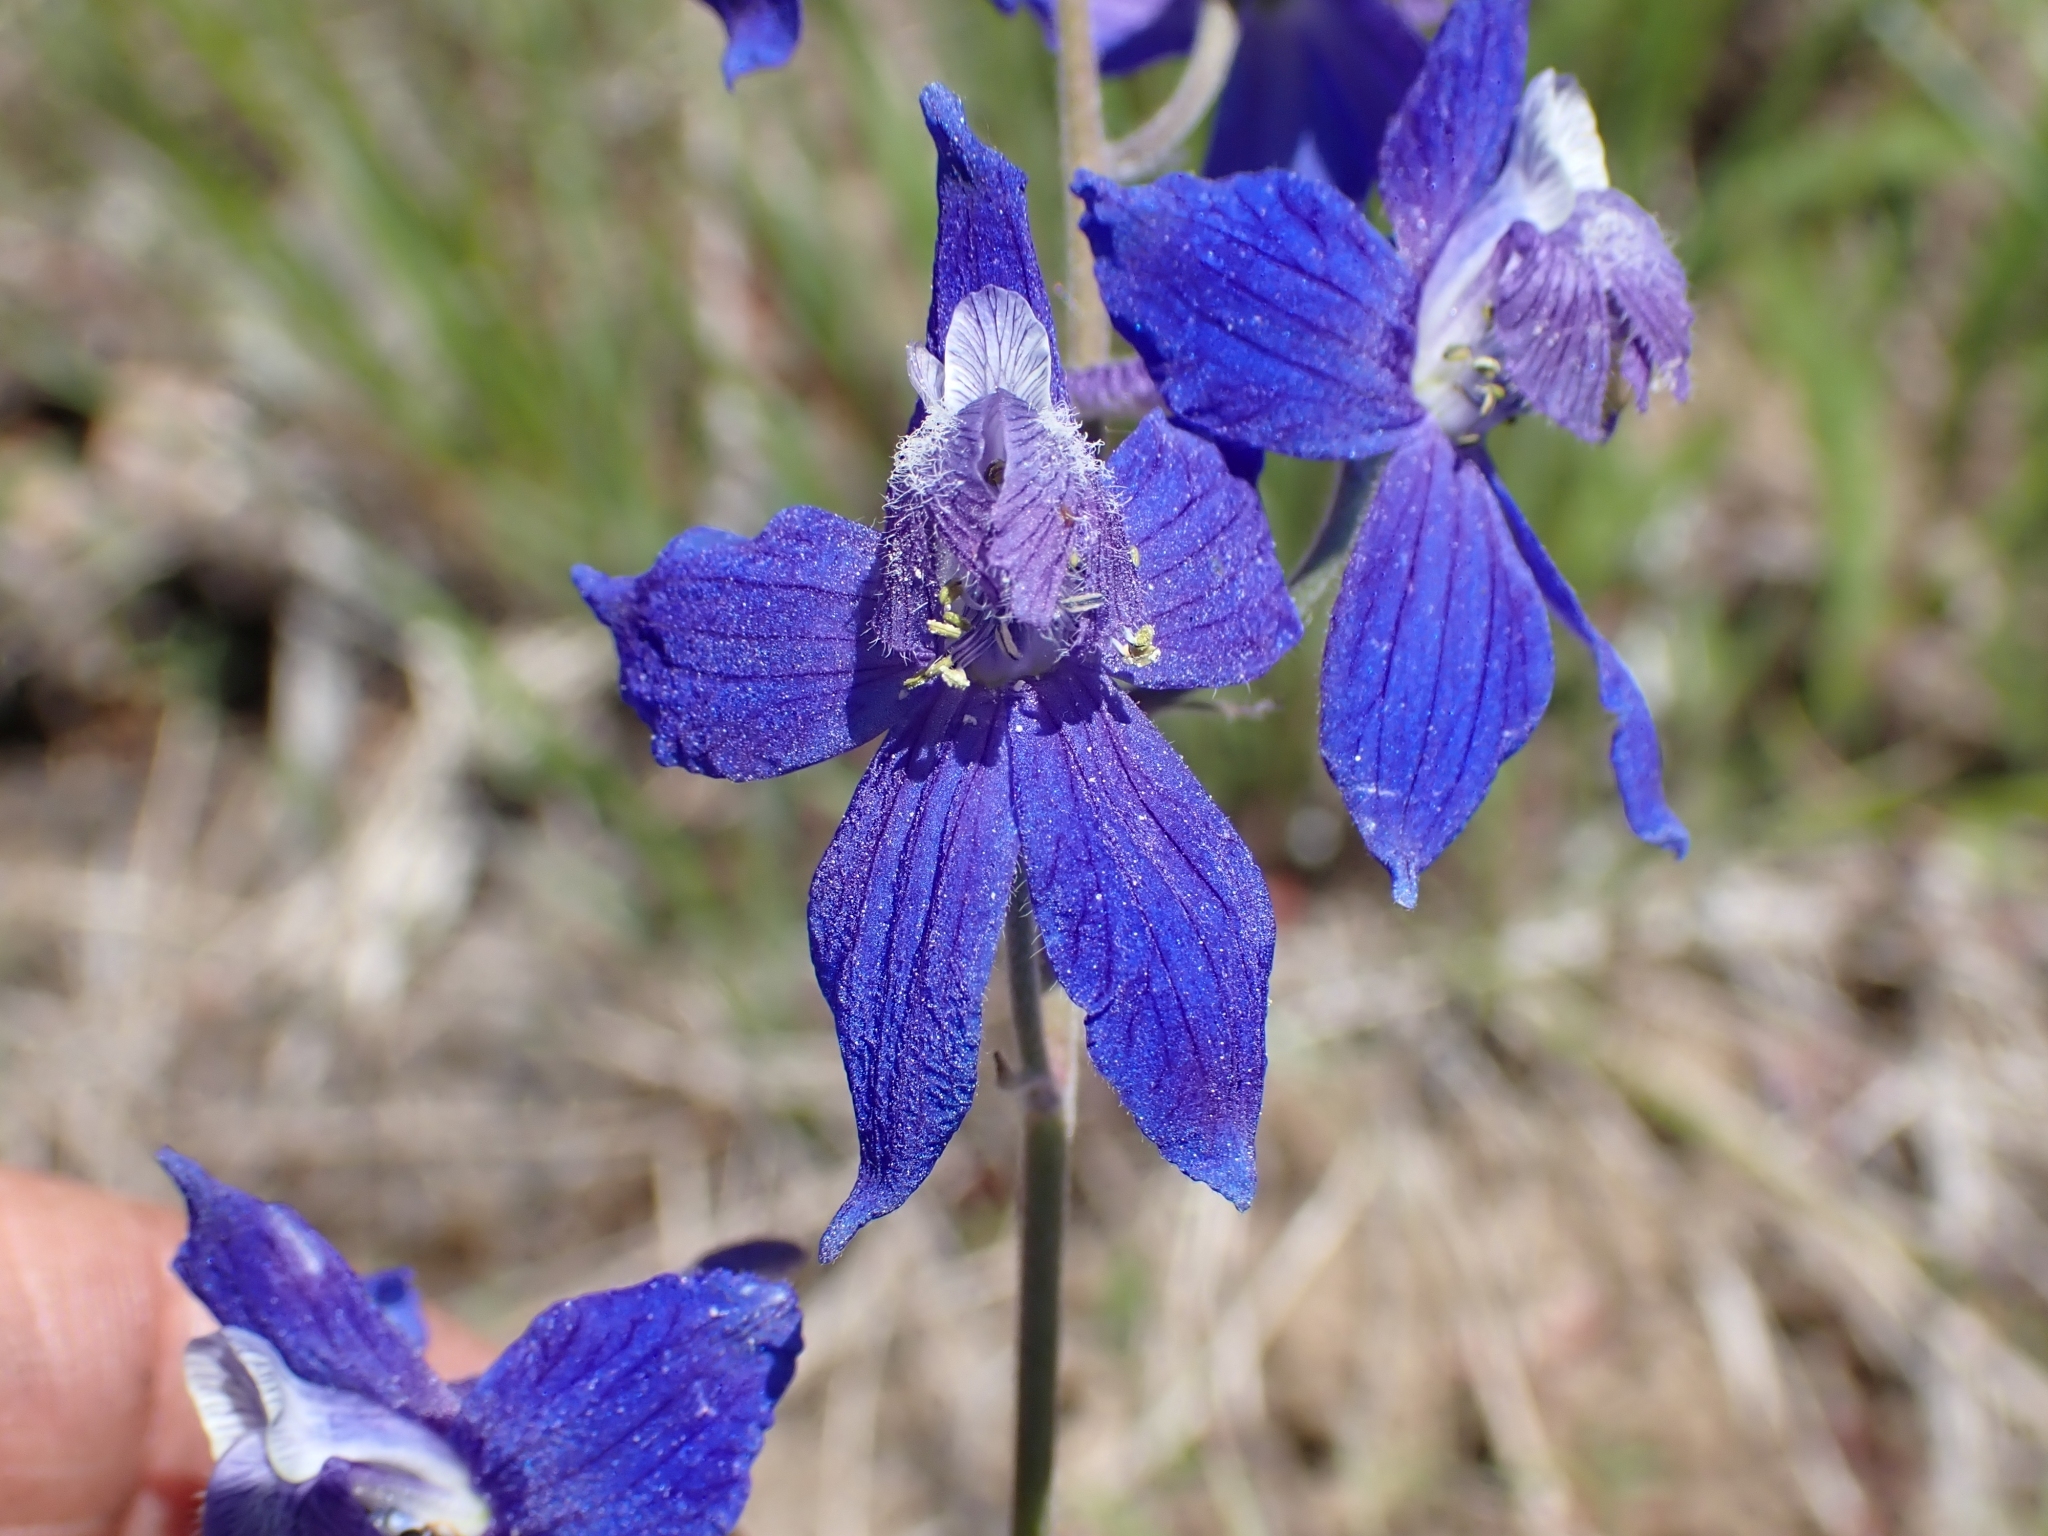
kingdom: Plantae
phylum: Tracheophyta
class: Magnoliopsida
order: Ranunculales
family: Ranunculaceae
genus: Delphinium
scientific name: Delphinium nuttallianum
